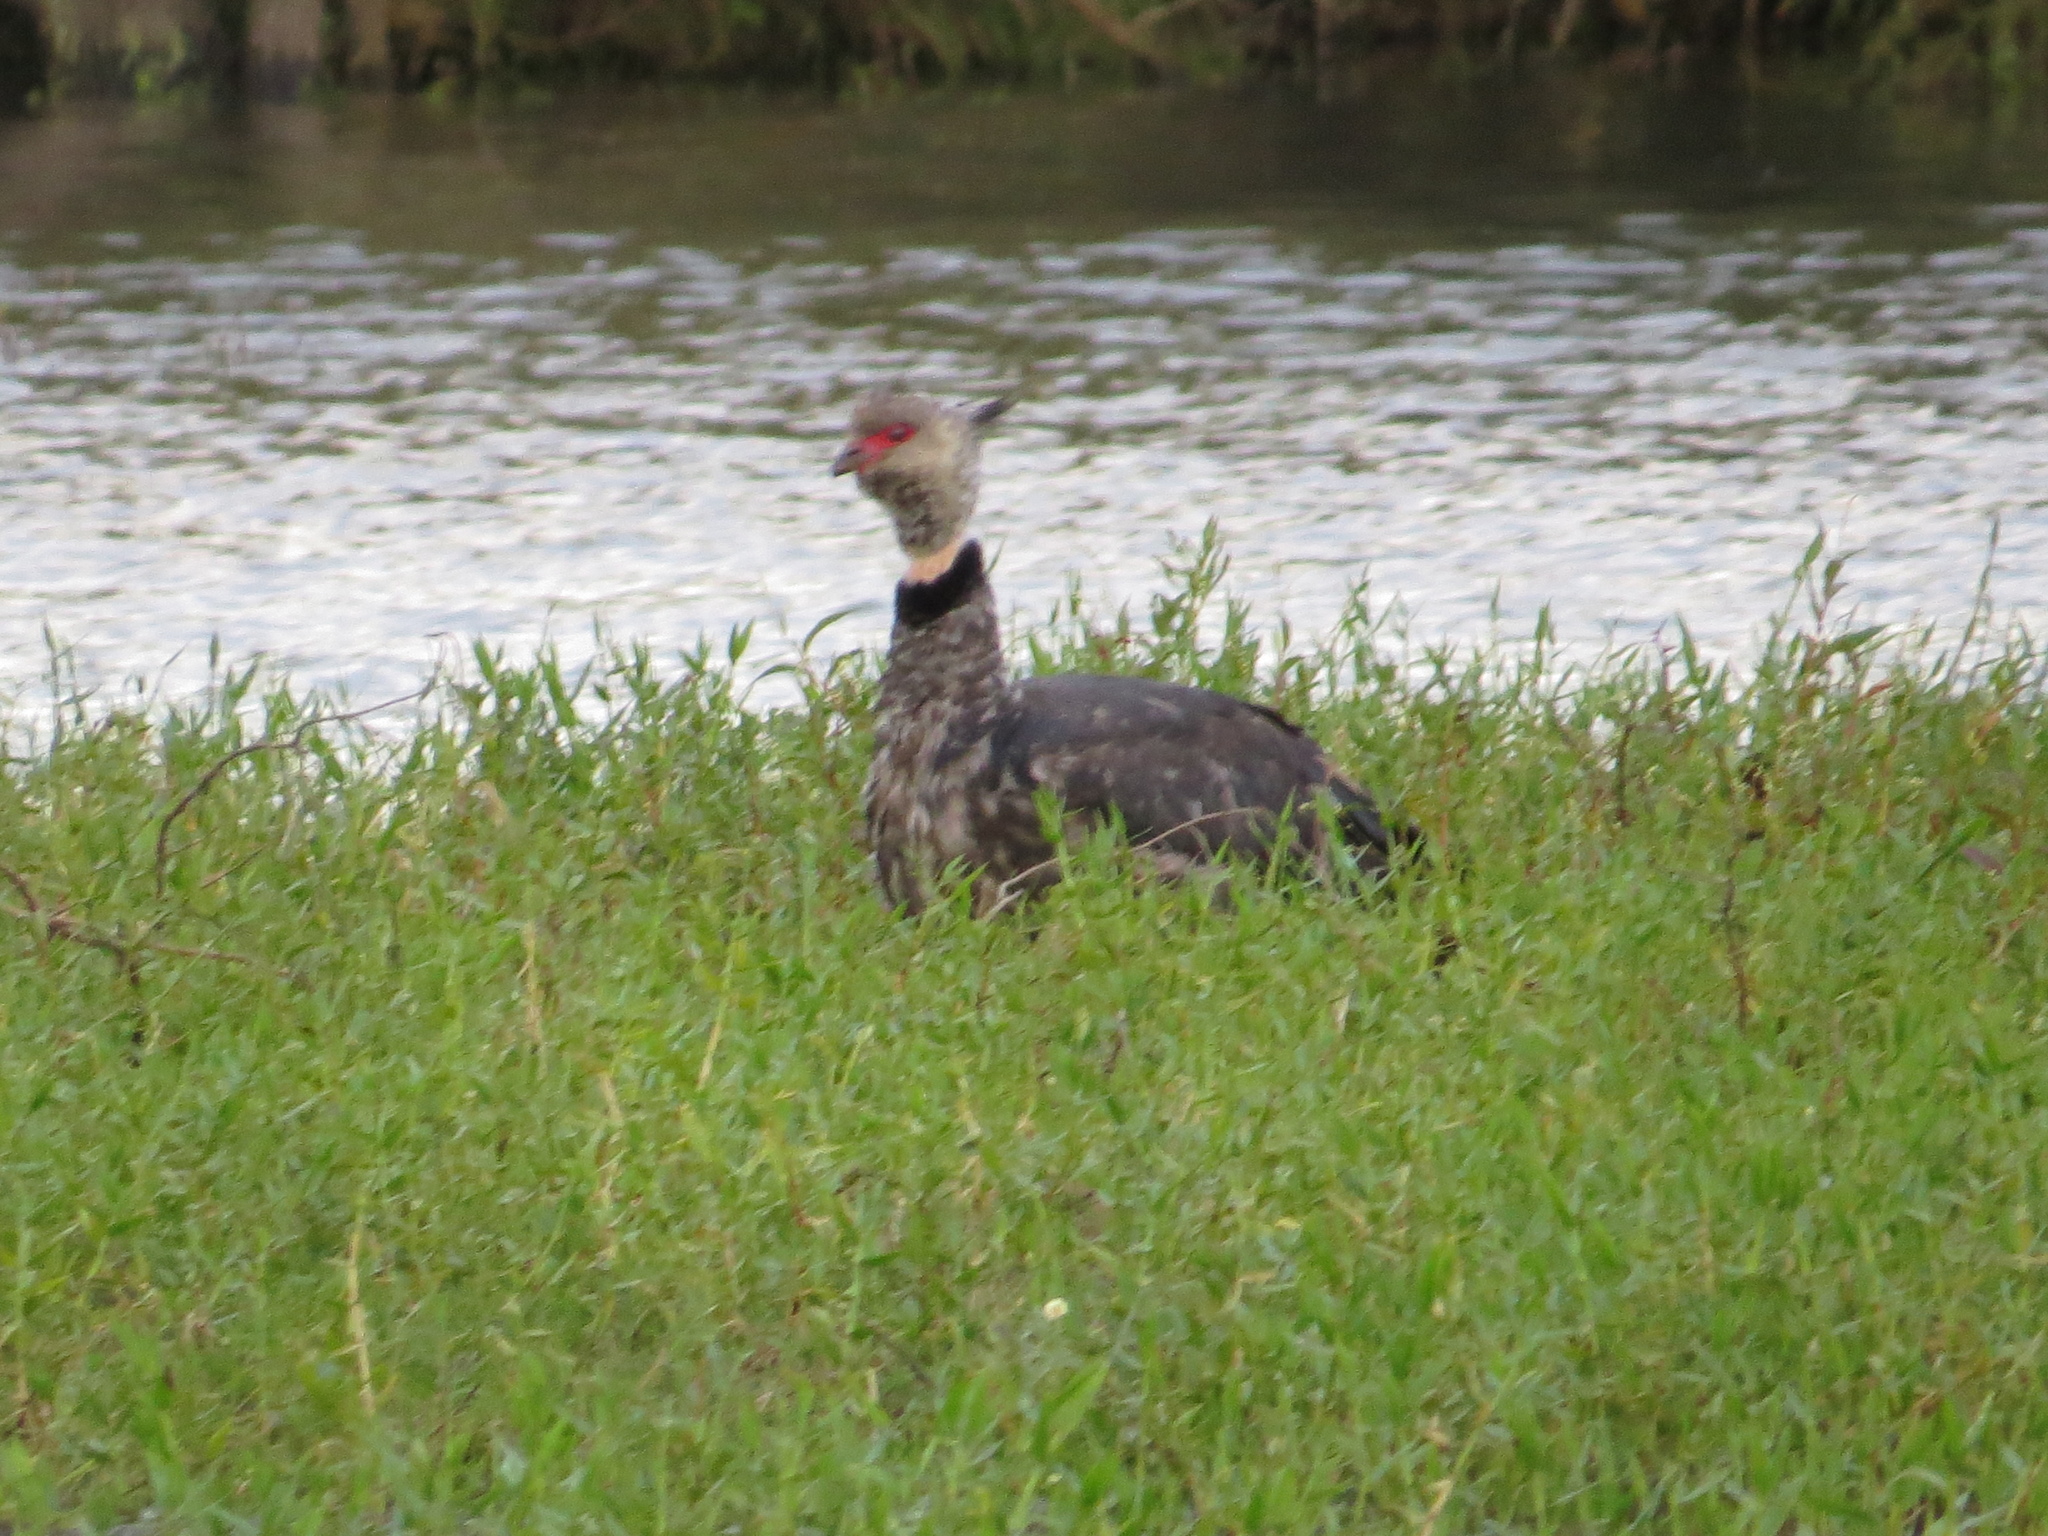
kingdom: Animalia
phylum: Chordata
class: Aves
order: Anseriformes
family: Anhimidae
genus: Chauna
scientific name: Chauna torquata
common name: Southern screamer
